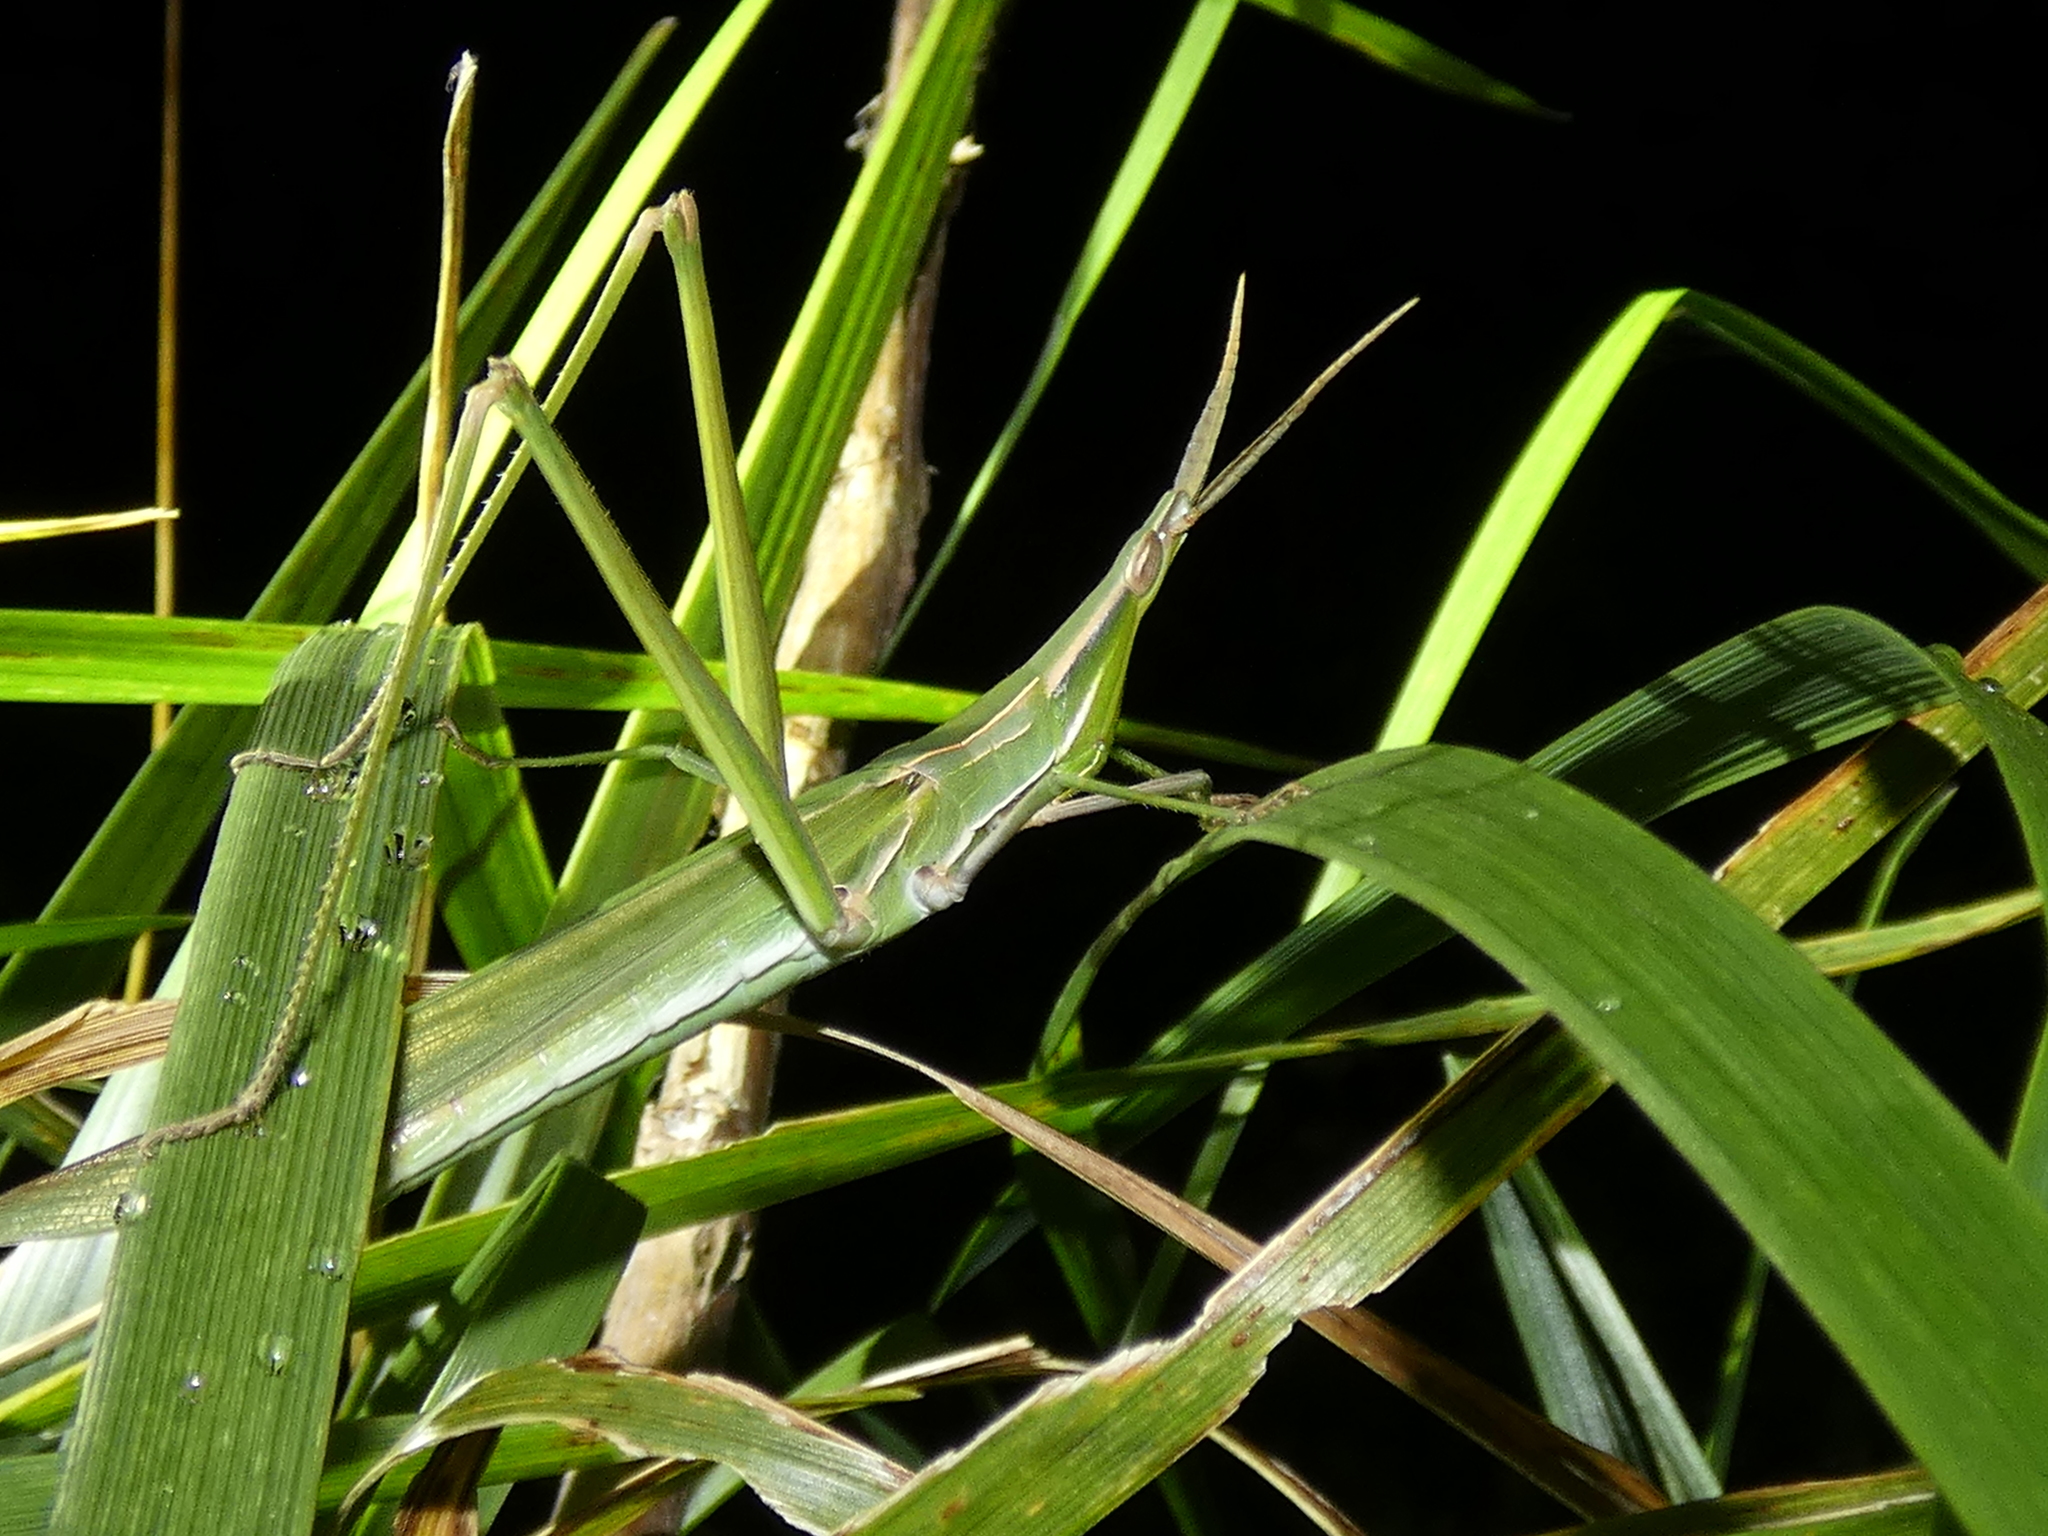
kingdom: Animalia
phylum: Arthropoda
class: Insecta
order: Orthoptera
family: Acrididae
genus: Acrida
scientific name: Acrida conica
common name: Giant green slantface
